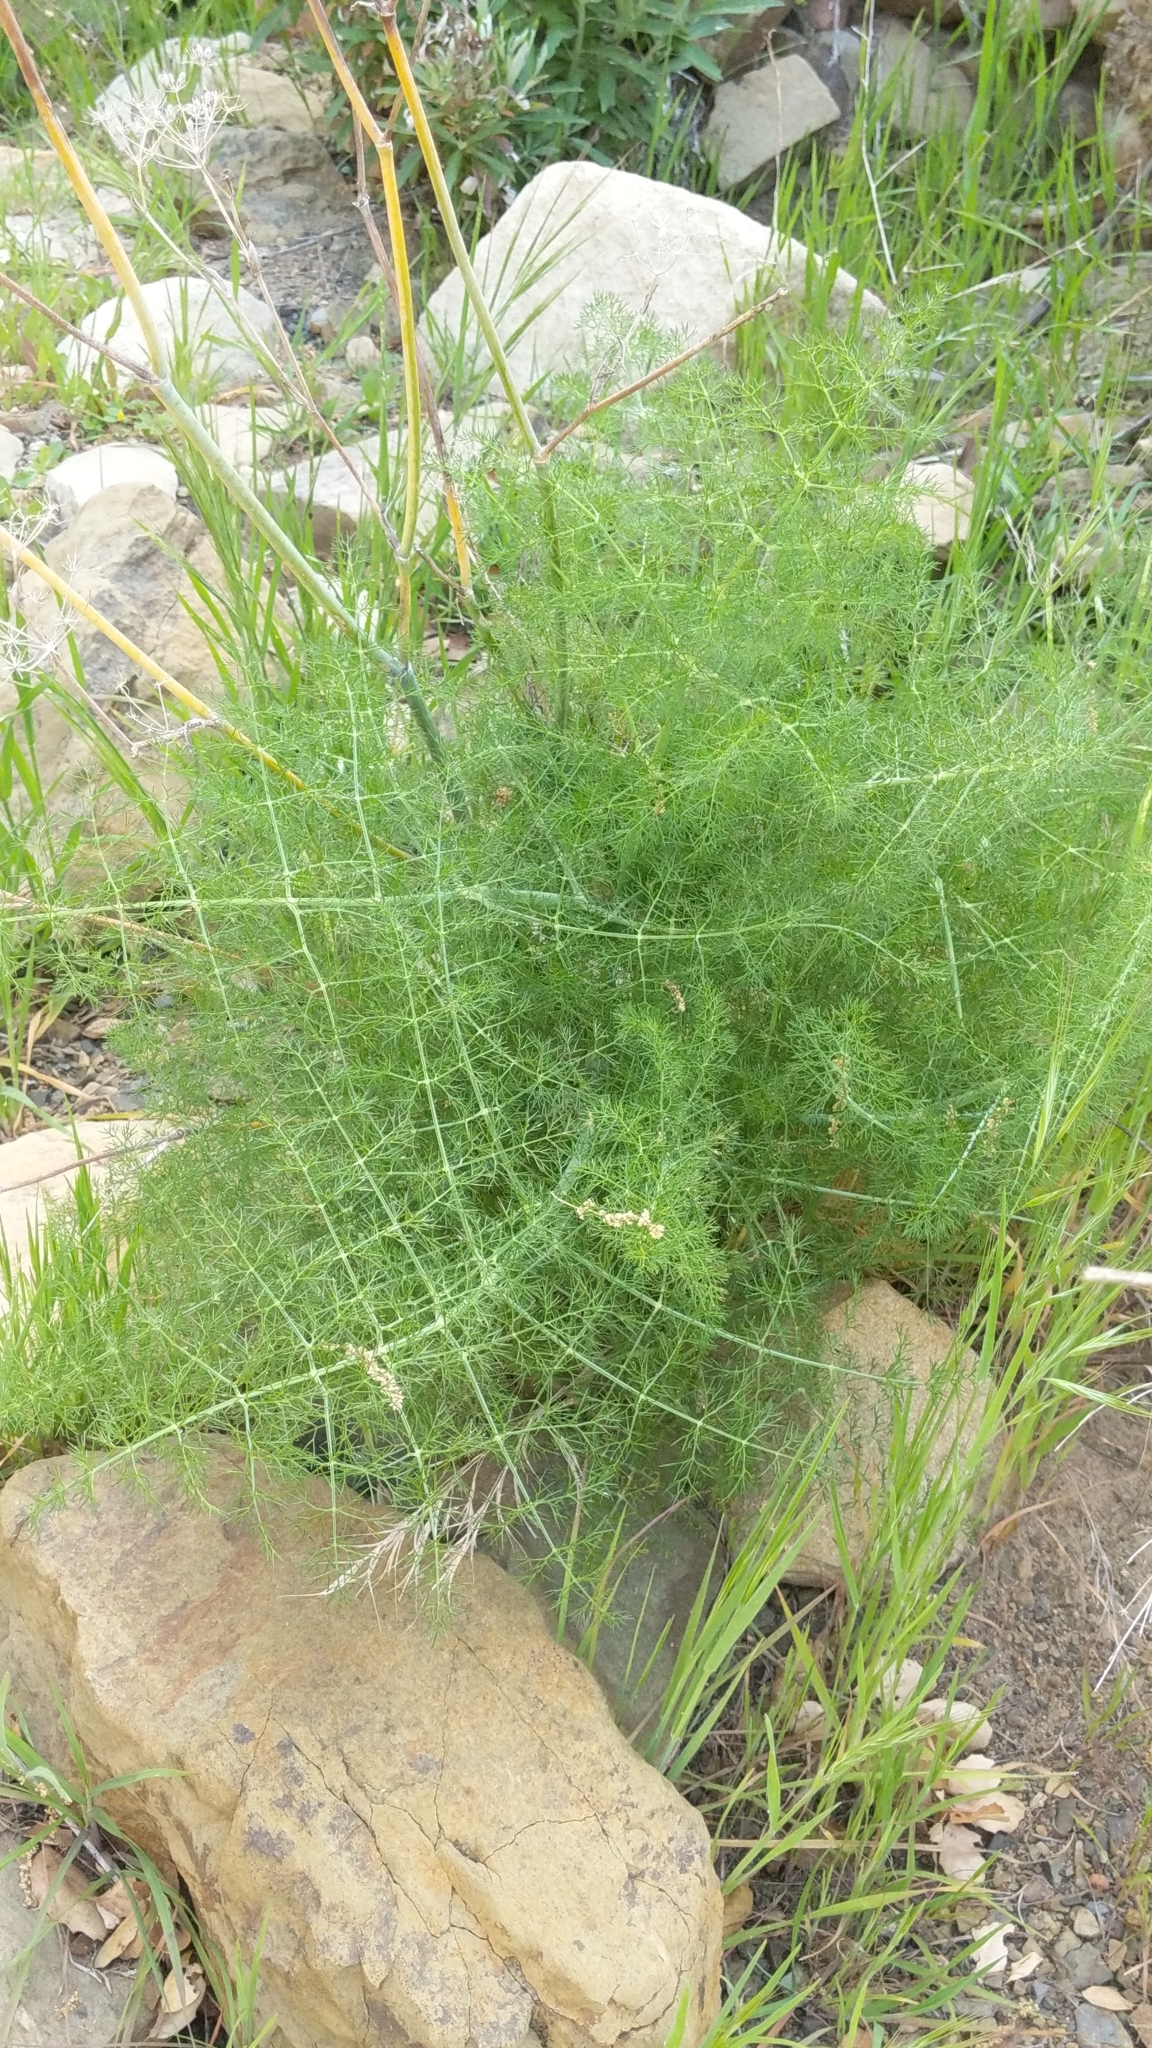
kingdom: Plantae
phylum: Tracheophyta
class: Magnoliopsida
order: Apiales
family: Apiaceae
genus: Foeniculum
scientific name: Foeniculum vulgare
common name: Fennel
